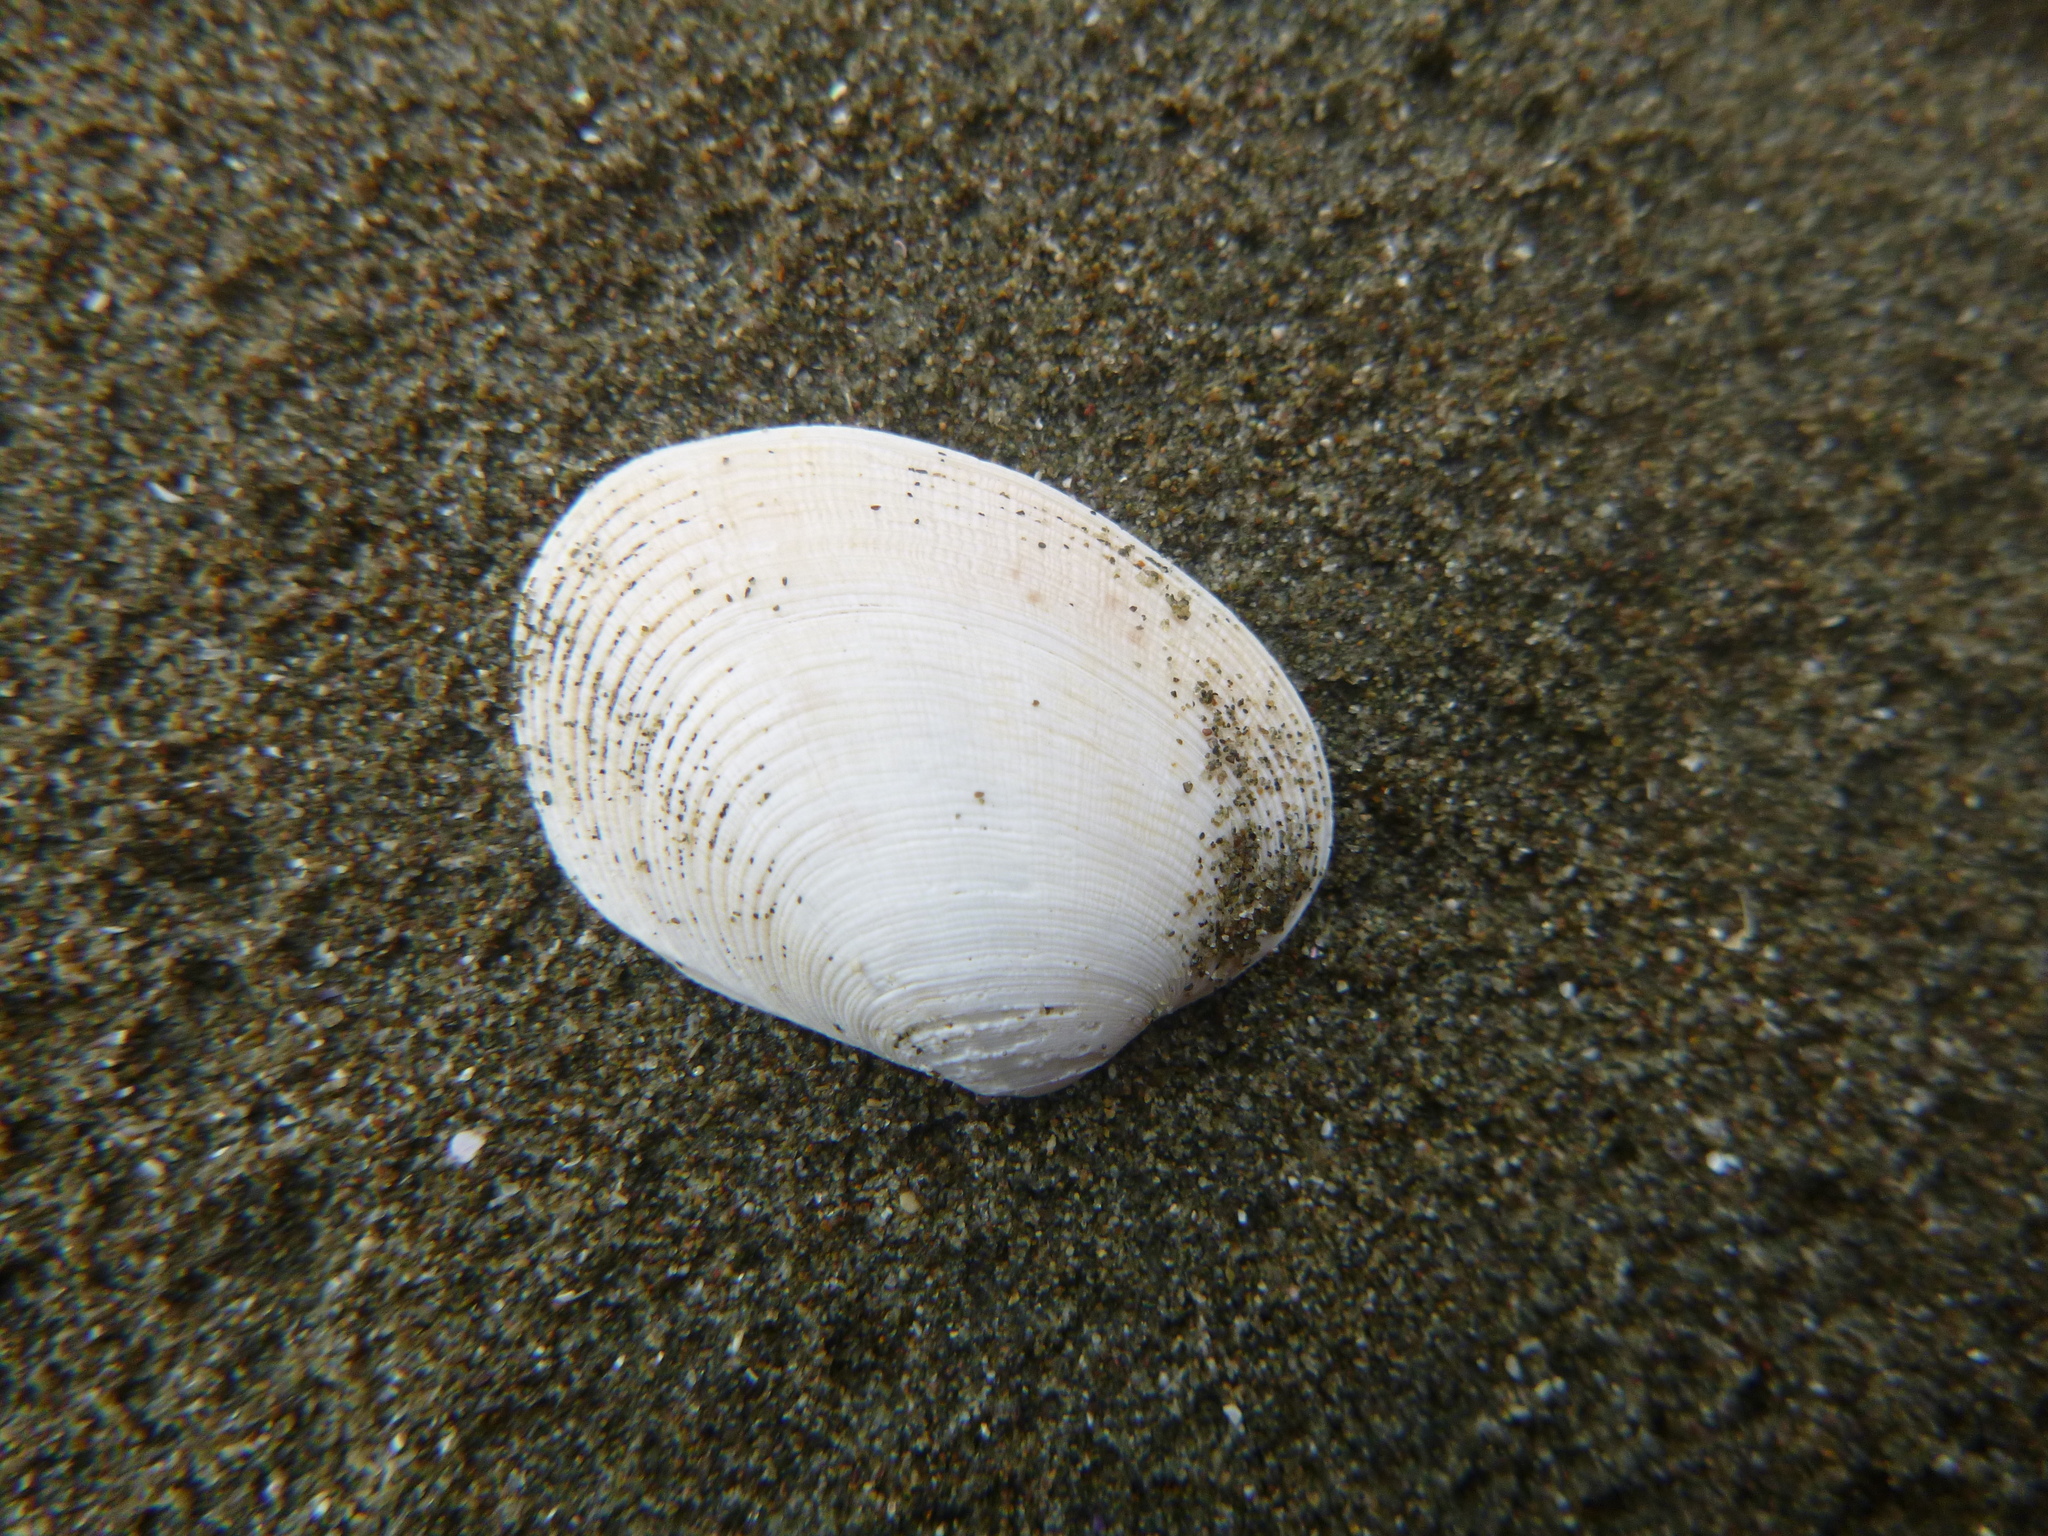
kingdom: Animalia
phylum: Mollusca
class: Bivalvia
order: Venerida
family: Veneridae
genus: Venerupis
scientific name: Venerupis largillierti
